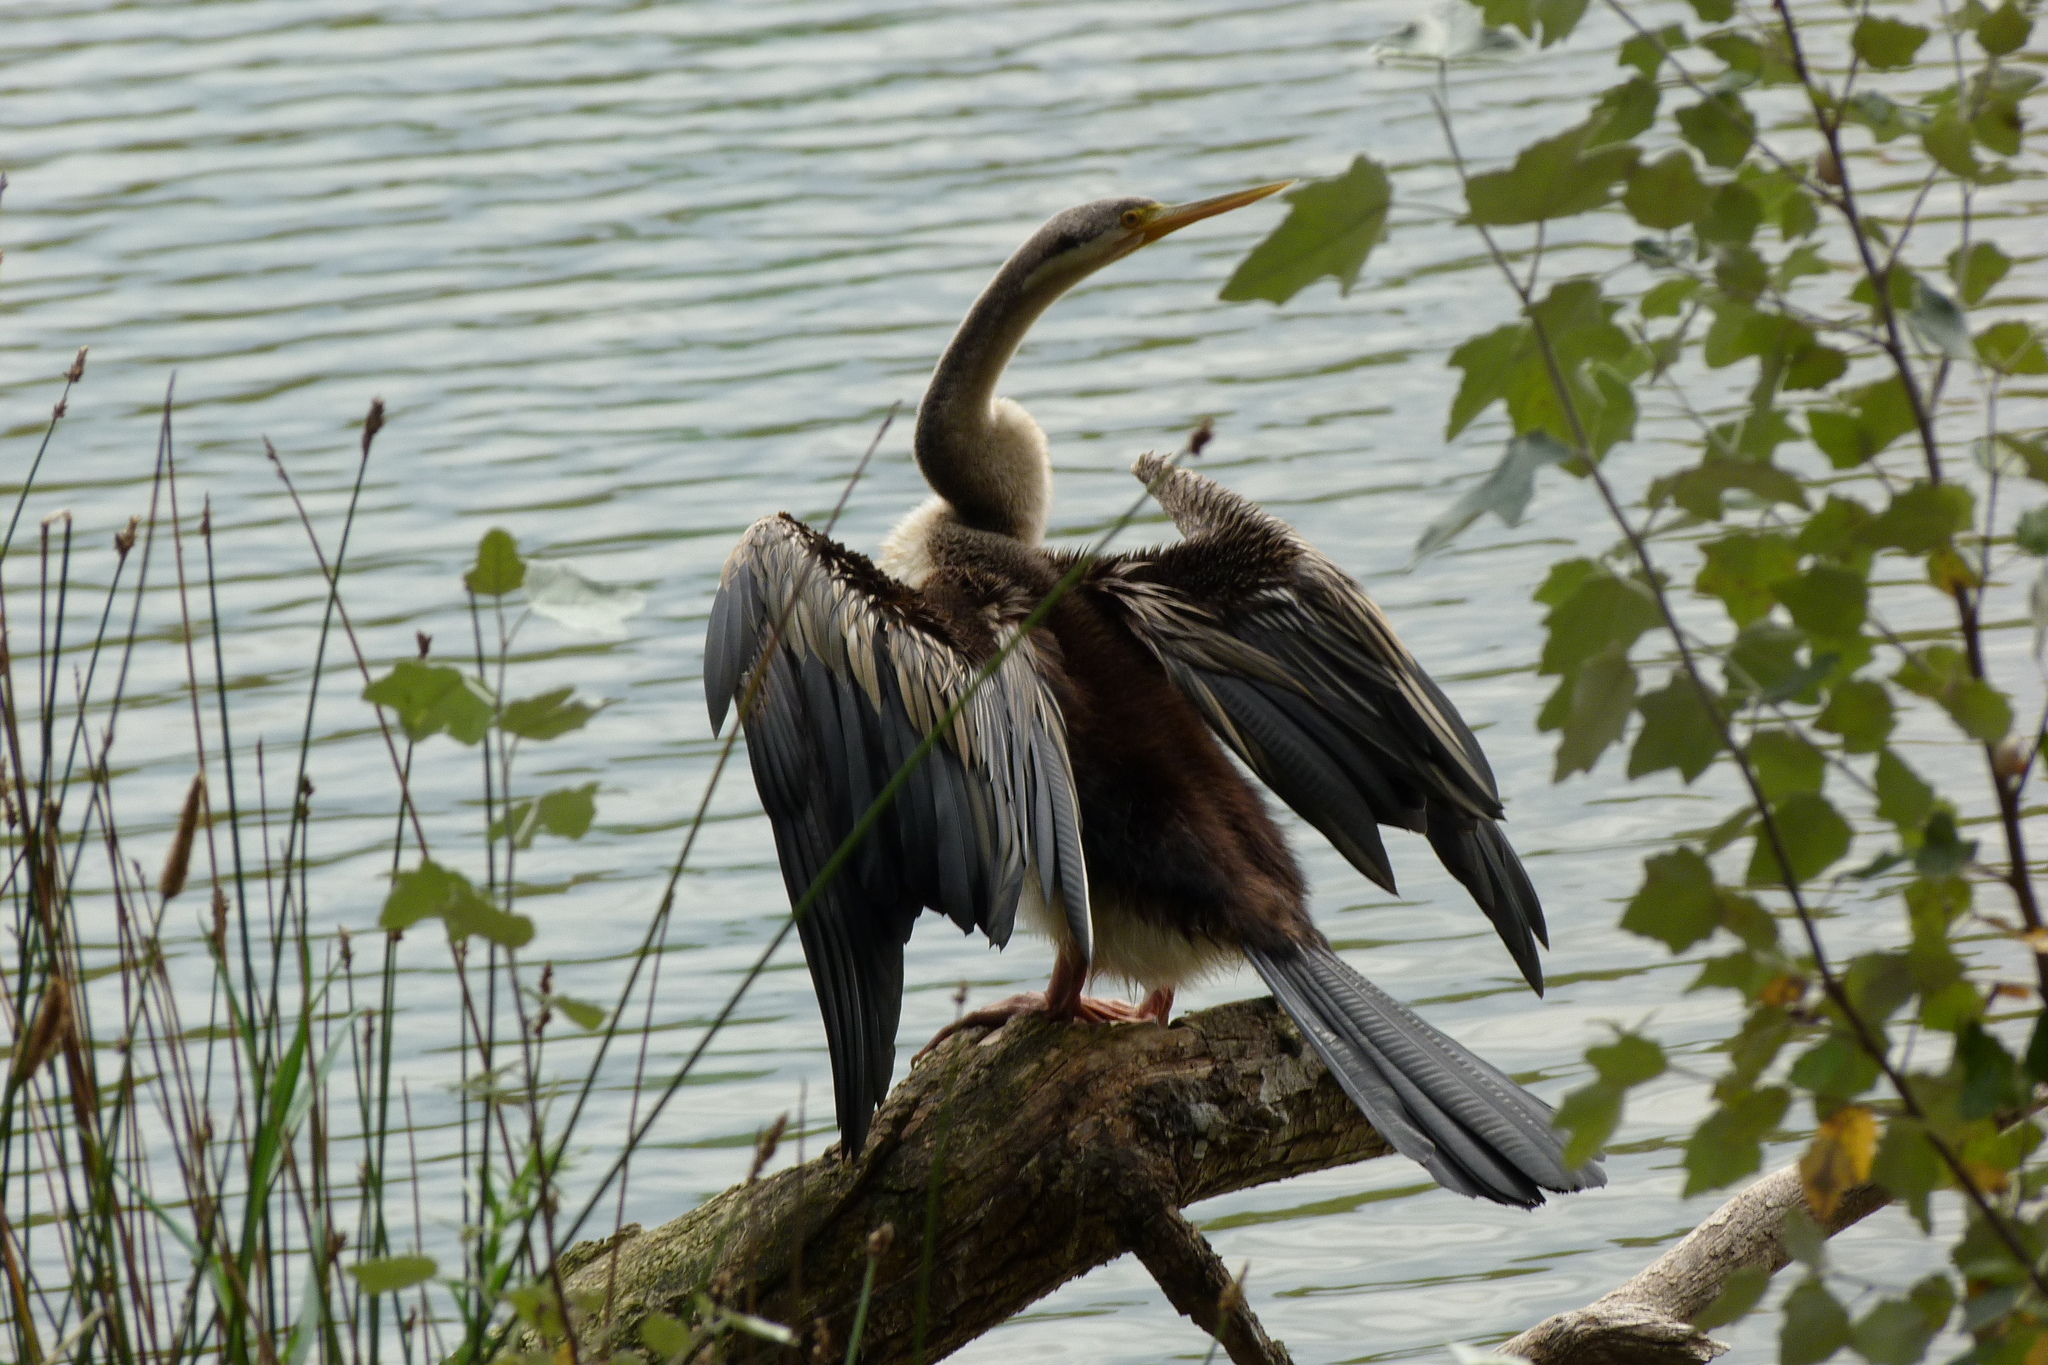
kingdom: Animalia
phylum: Chordata
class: Aves
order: Suliformes
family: Anhingidae
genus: Anhinga
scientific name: Anhinga novaehollandiae
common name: Australasian darter
